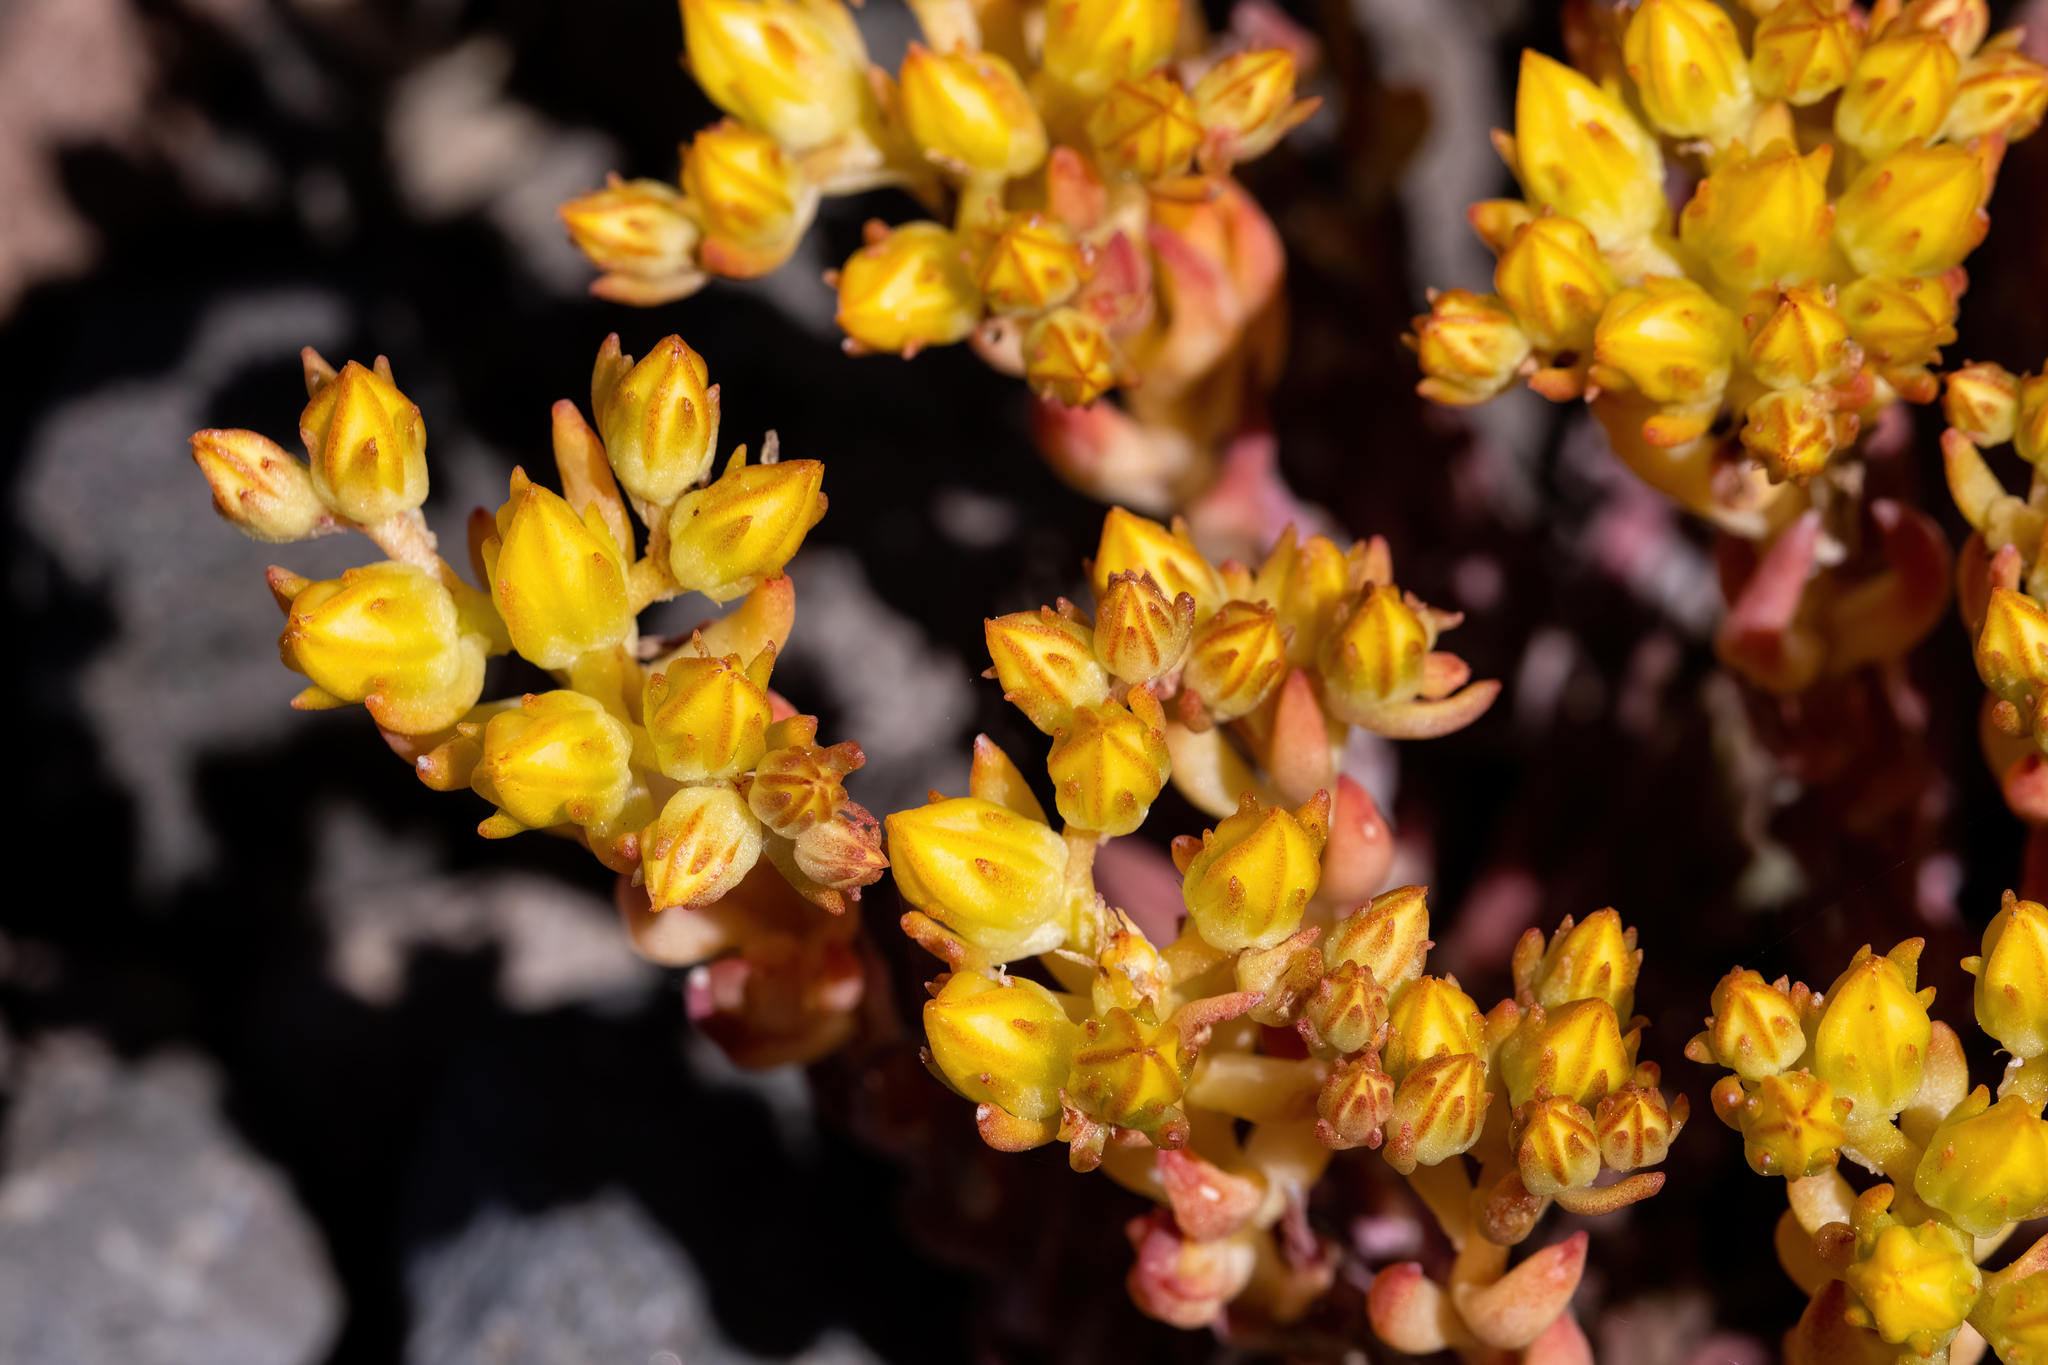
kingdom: Plantae
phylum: Tracheophyta
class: Magnoliopsida
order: Saxifragales
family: Crassulaceae
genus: Sedum
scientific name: Sedum lanceolatum
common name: Common stonecrop
